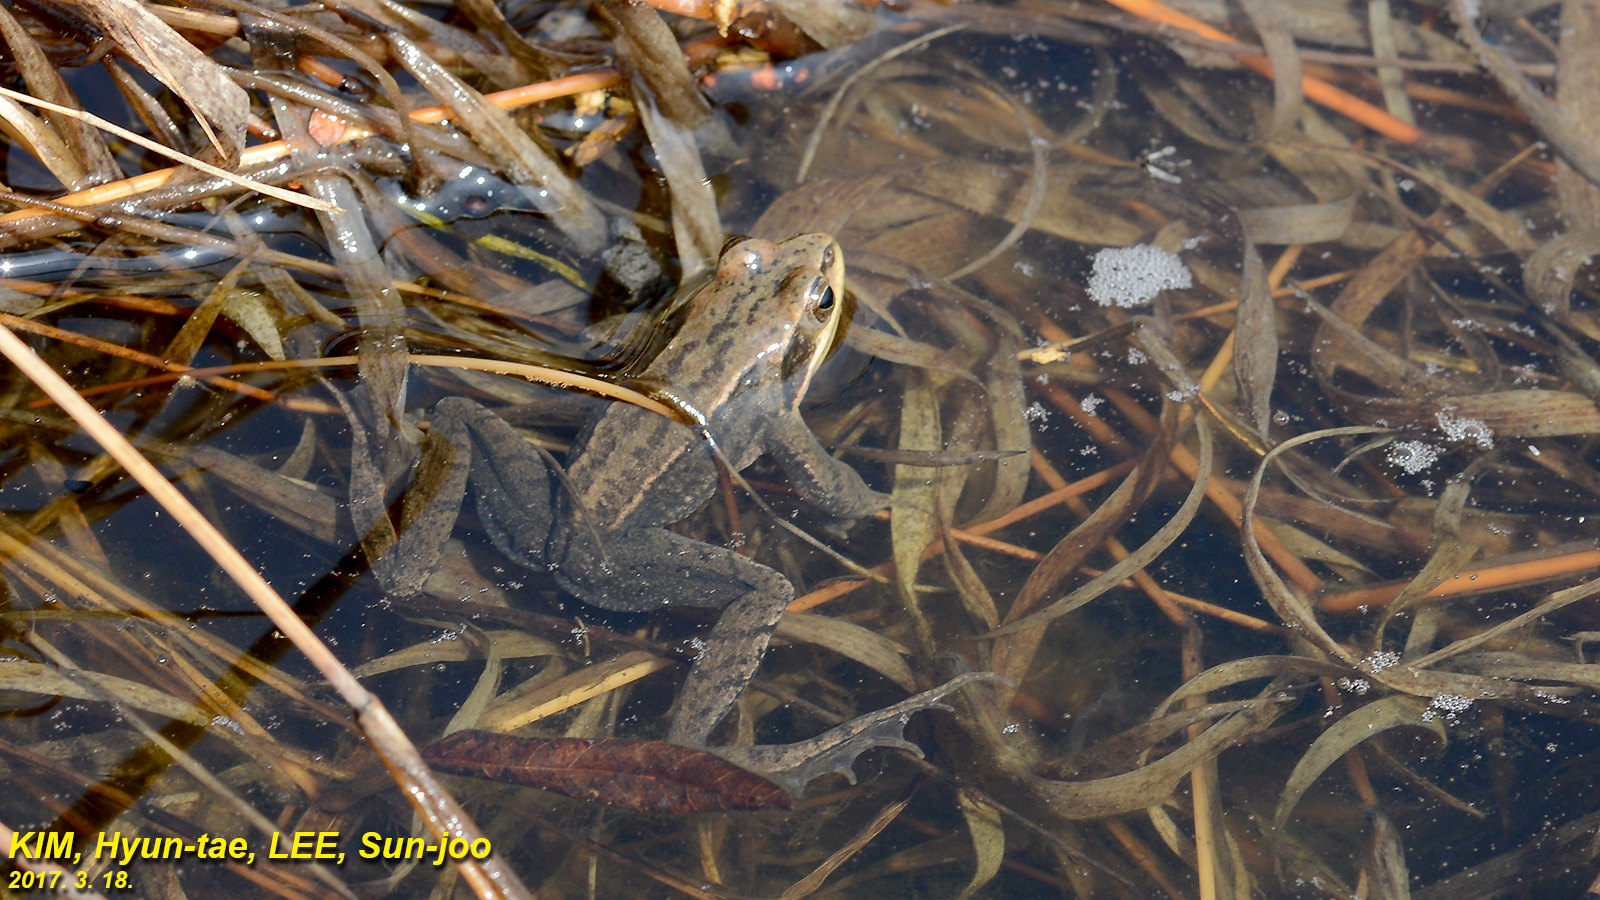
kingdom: Animalia
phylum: Chordata
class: Amphibia
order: Anura
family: Ranidae
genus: Rana
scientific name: Rana coreana
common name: Korean brown frog
